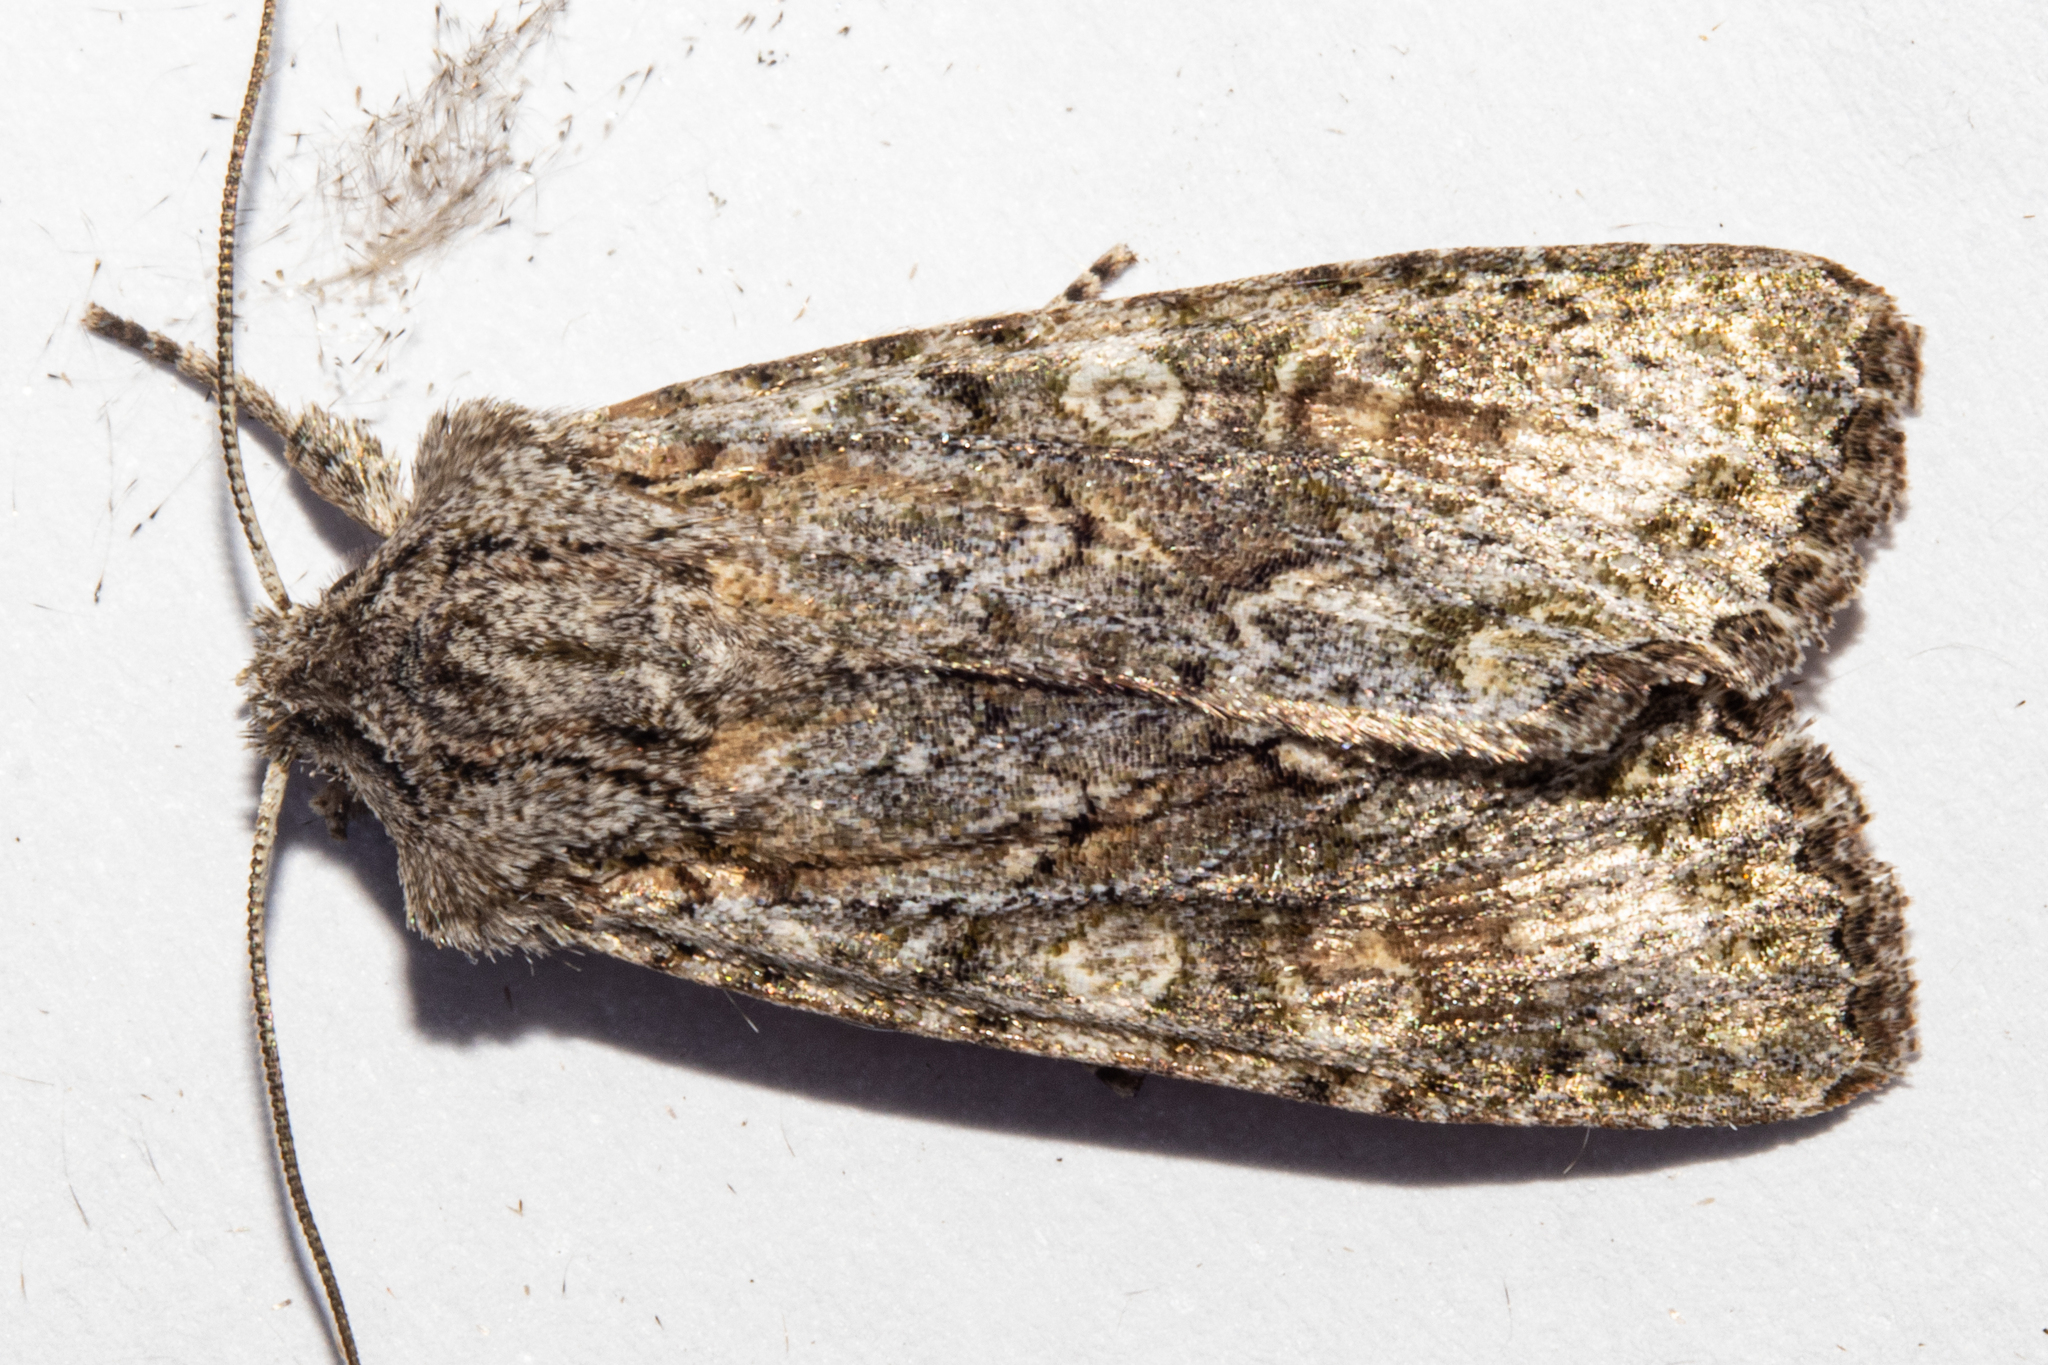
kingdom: Animalia
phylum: Arthropoda
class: Insecta
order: Lepidoptera
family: Noctuidae
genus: Ichneutica
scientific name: Ichneutica mutans
